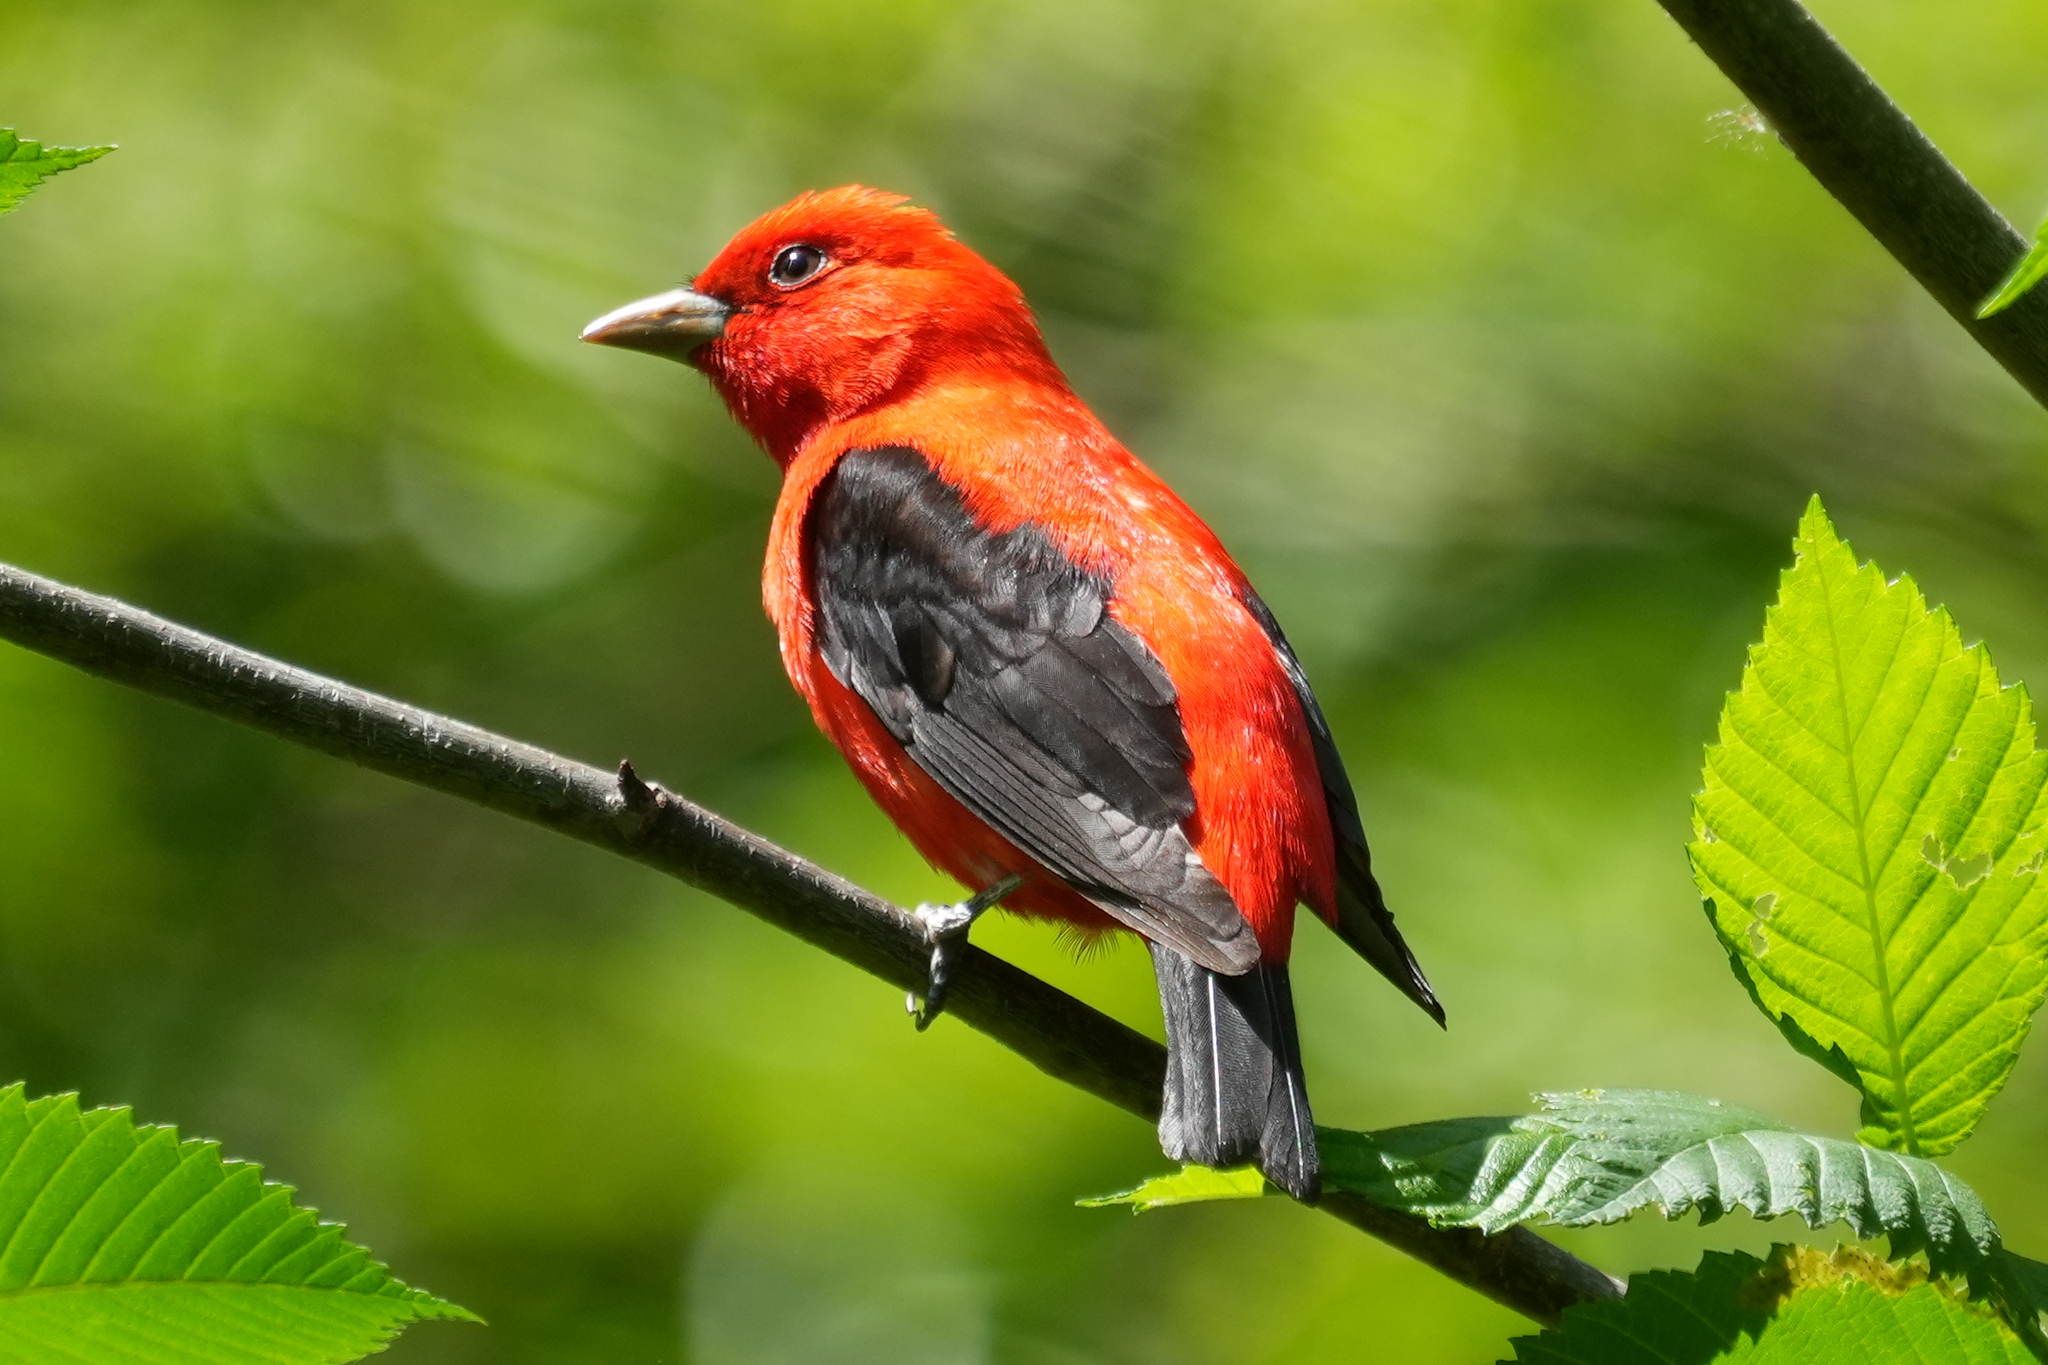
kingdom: Animalia
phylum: Chordata
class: Aves
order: Passeriformes
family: Cardinalidae
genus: Piranga
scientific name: Piranga olivacea
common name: Scarlet tanager
